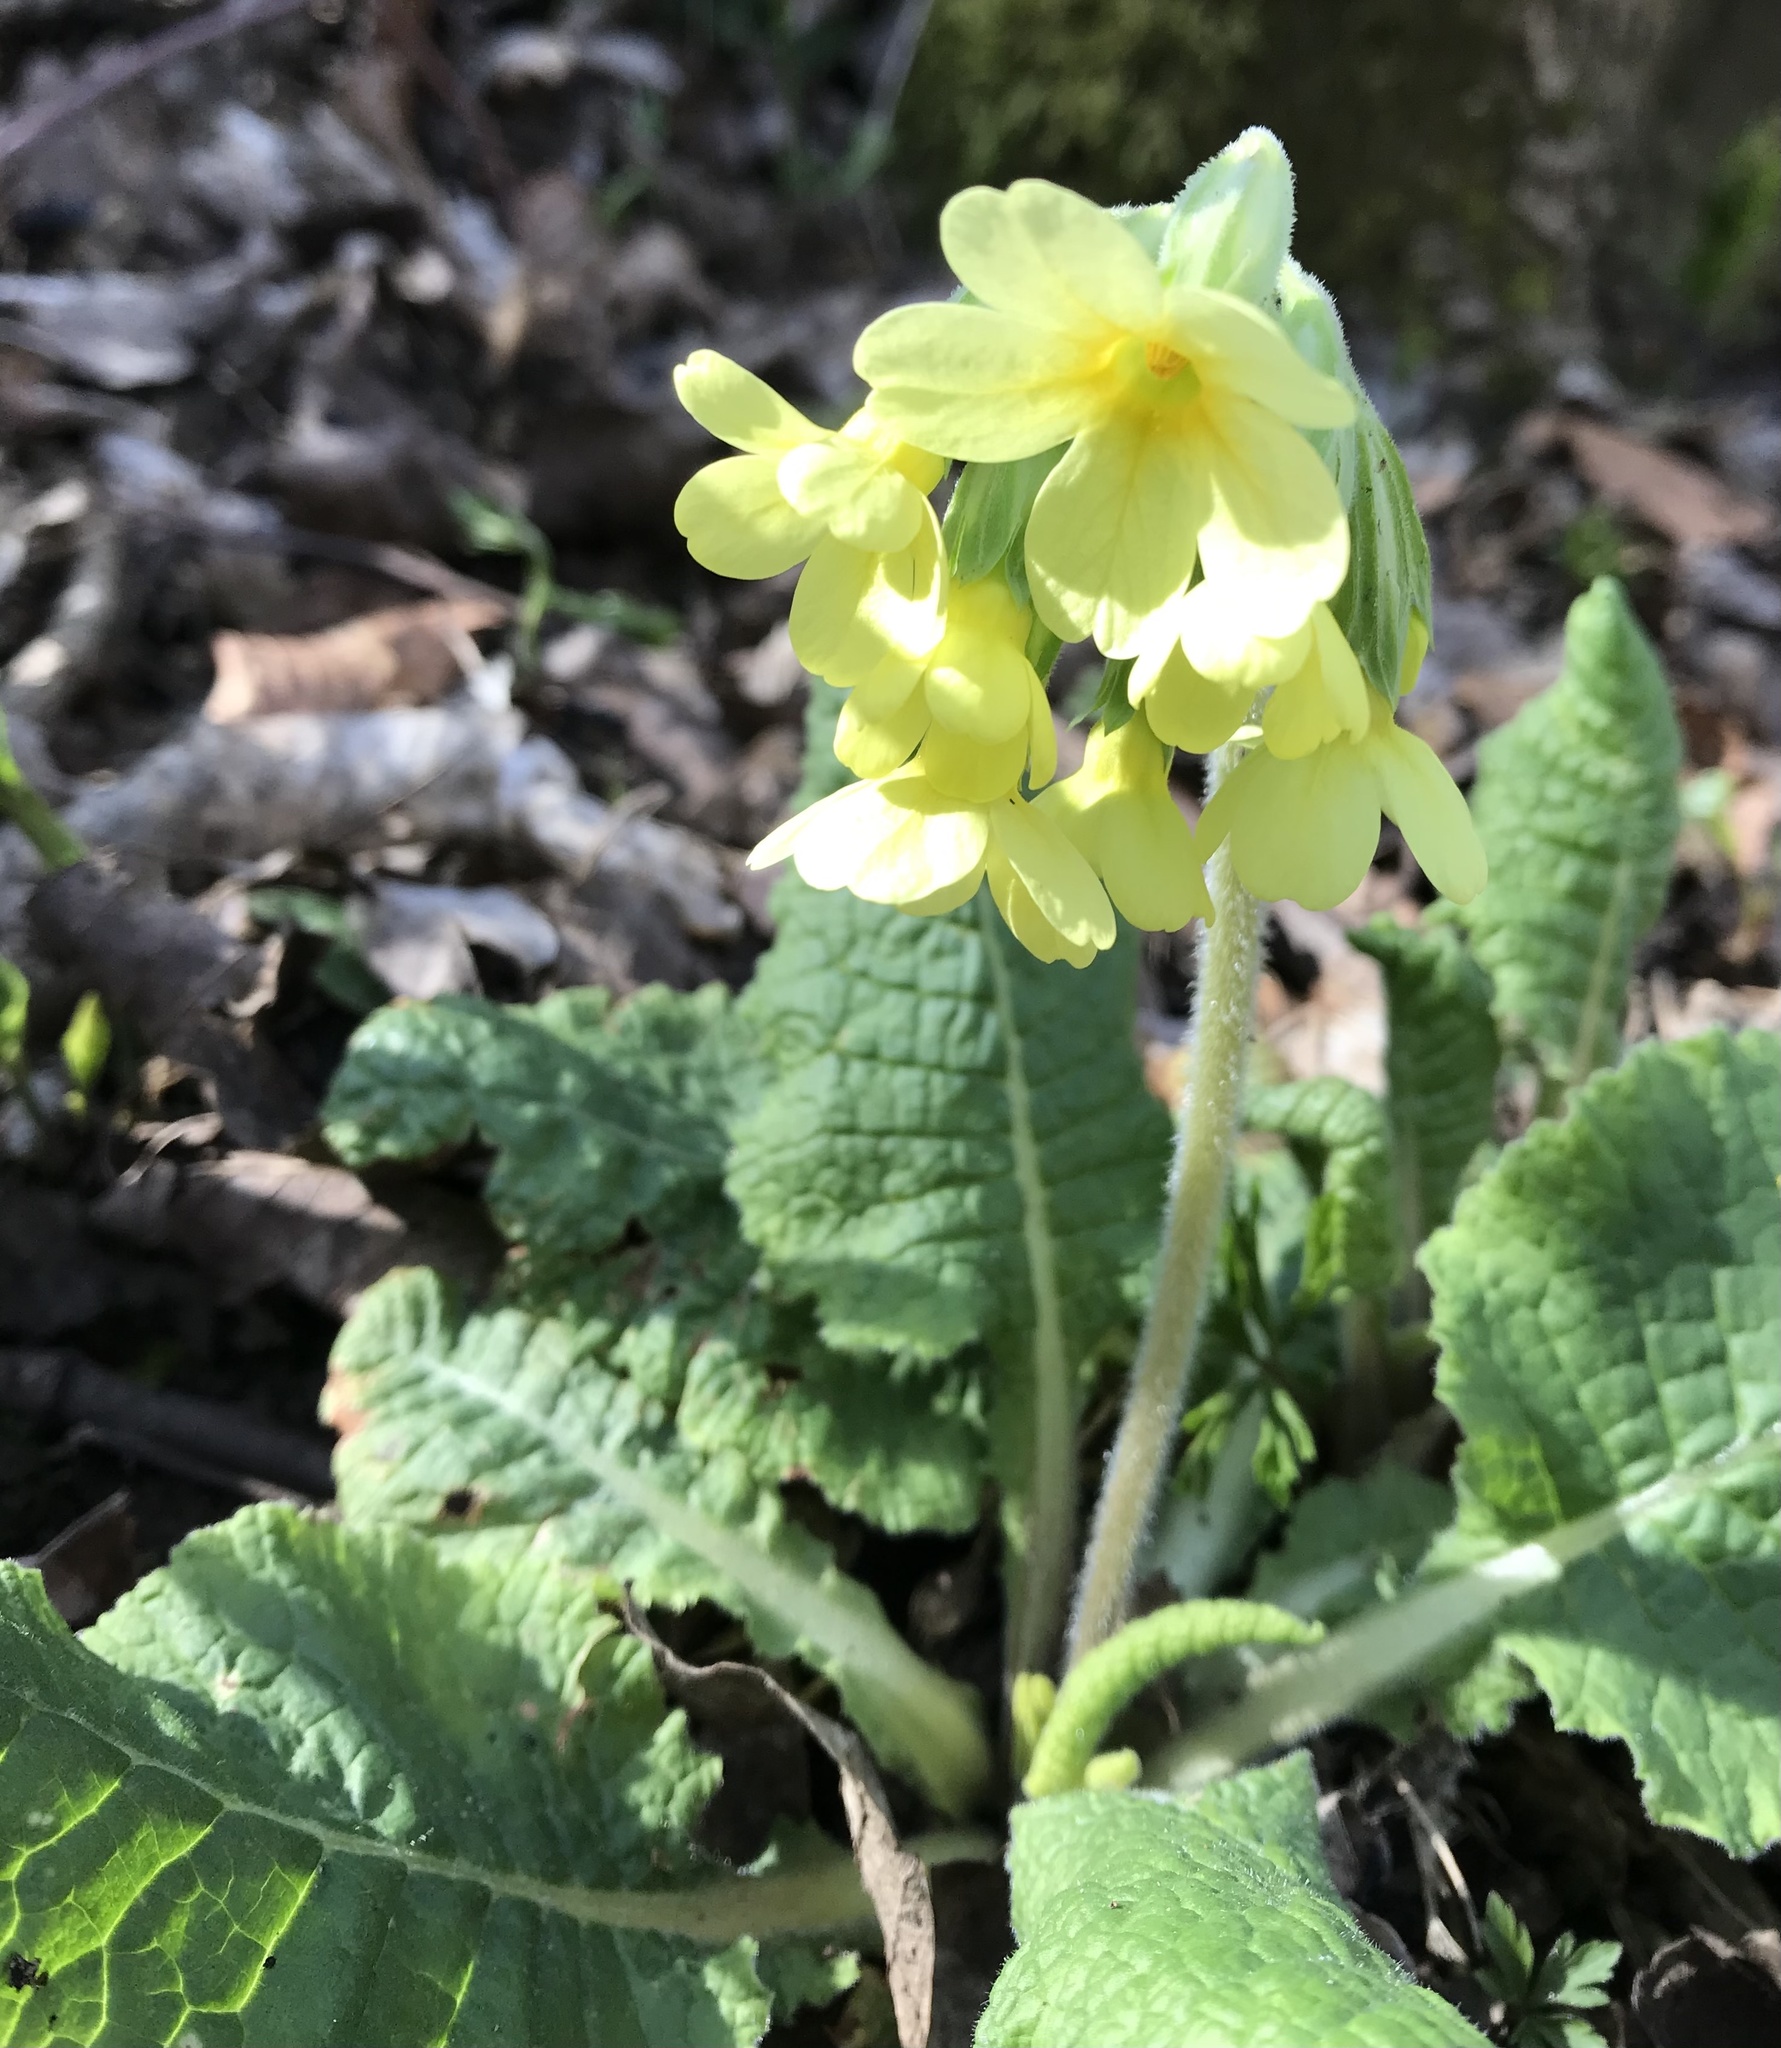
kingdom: Plantae
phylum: Tracheophyta
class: Magnoliopsida
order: Ericales
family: Primulaceae
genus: Primula
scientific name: Primula elatior
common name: Oxlip
